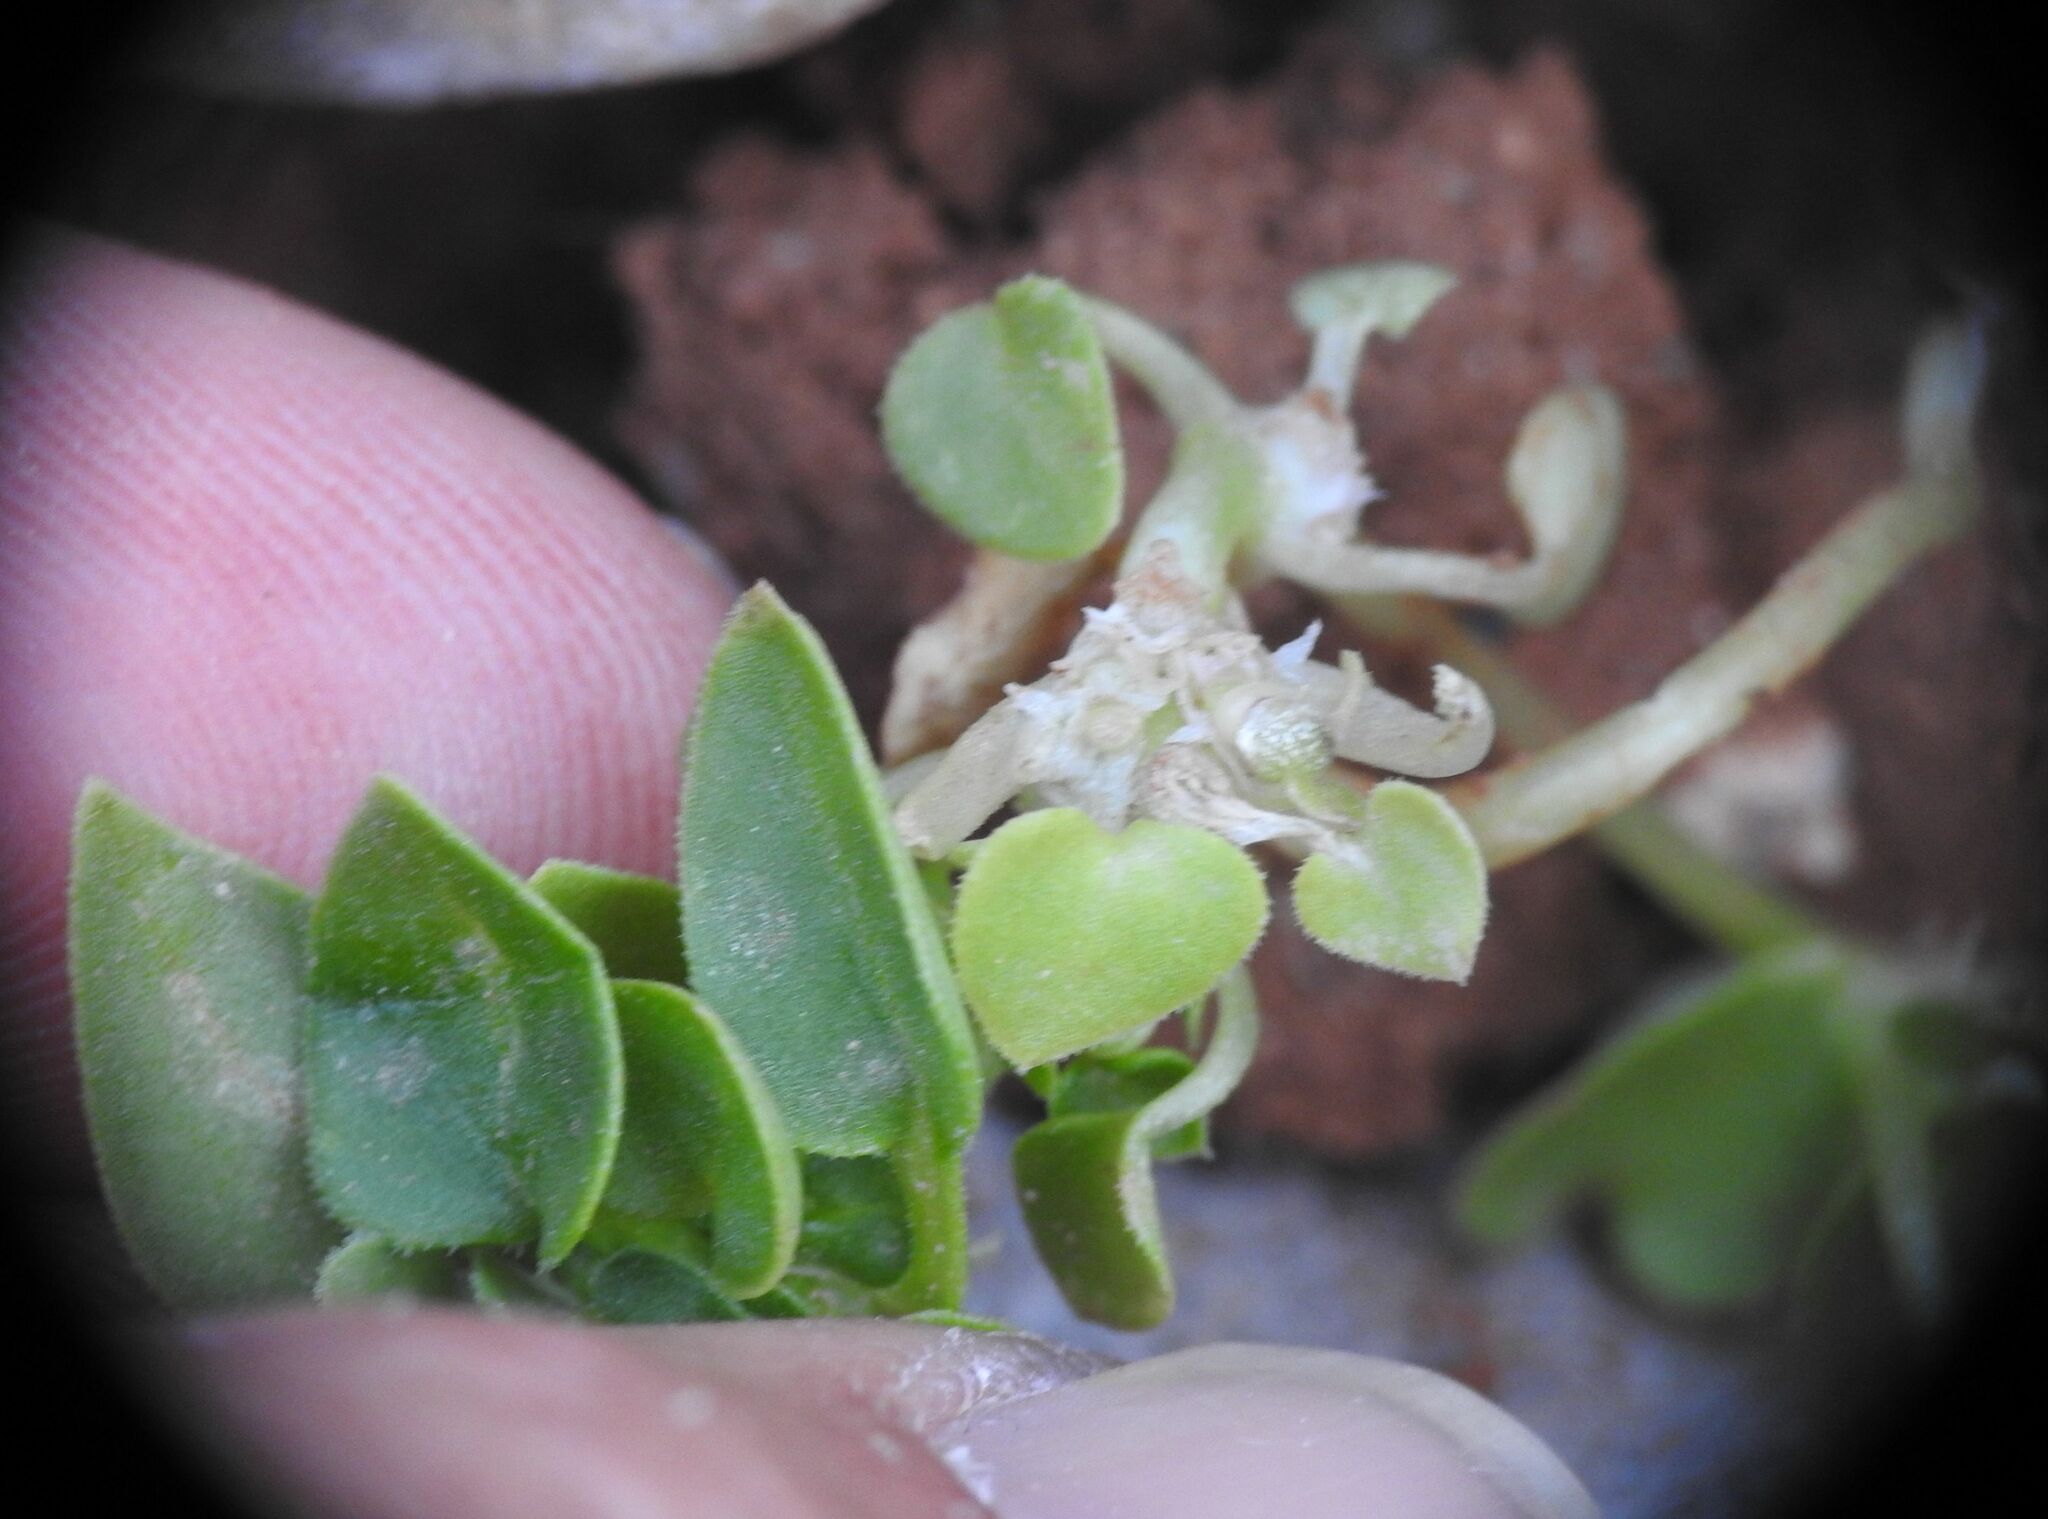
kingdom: Plantae
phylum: Tracheophyta
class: Magnoliopsida
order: Gentianales
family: Rubiaceae
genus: Theligonum
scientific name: Theligonum cynocrambe
